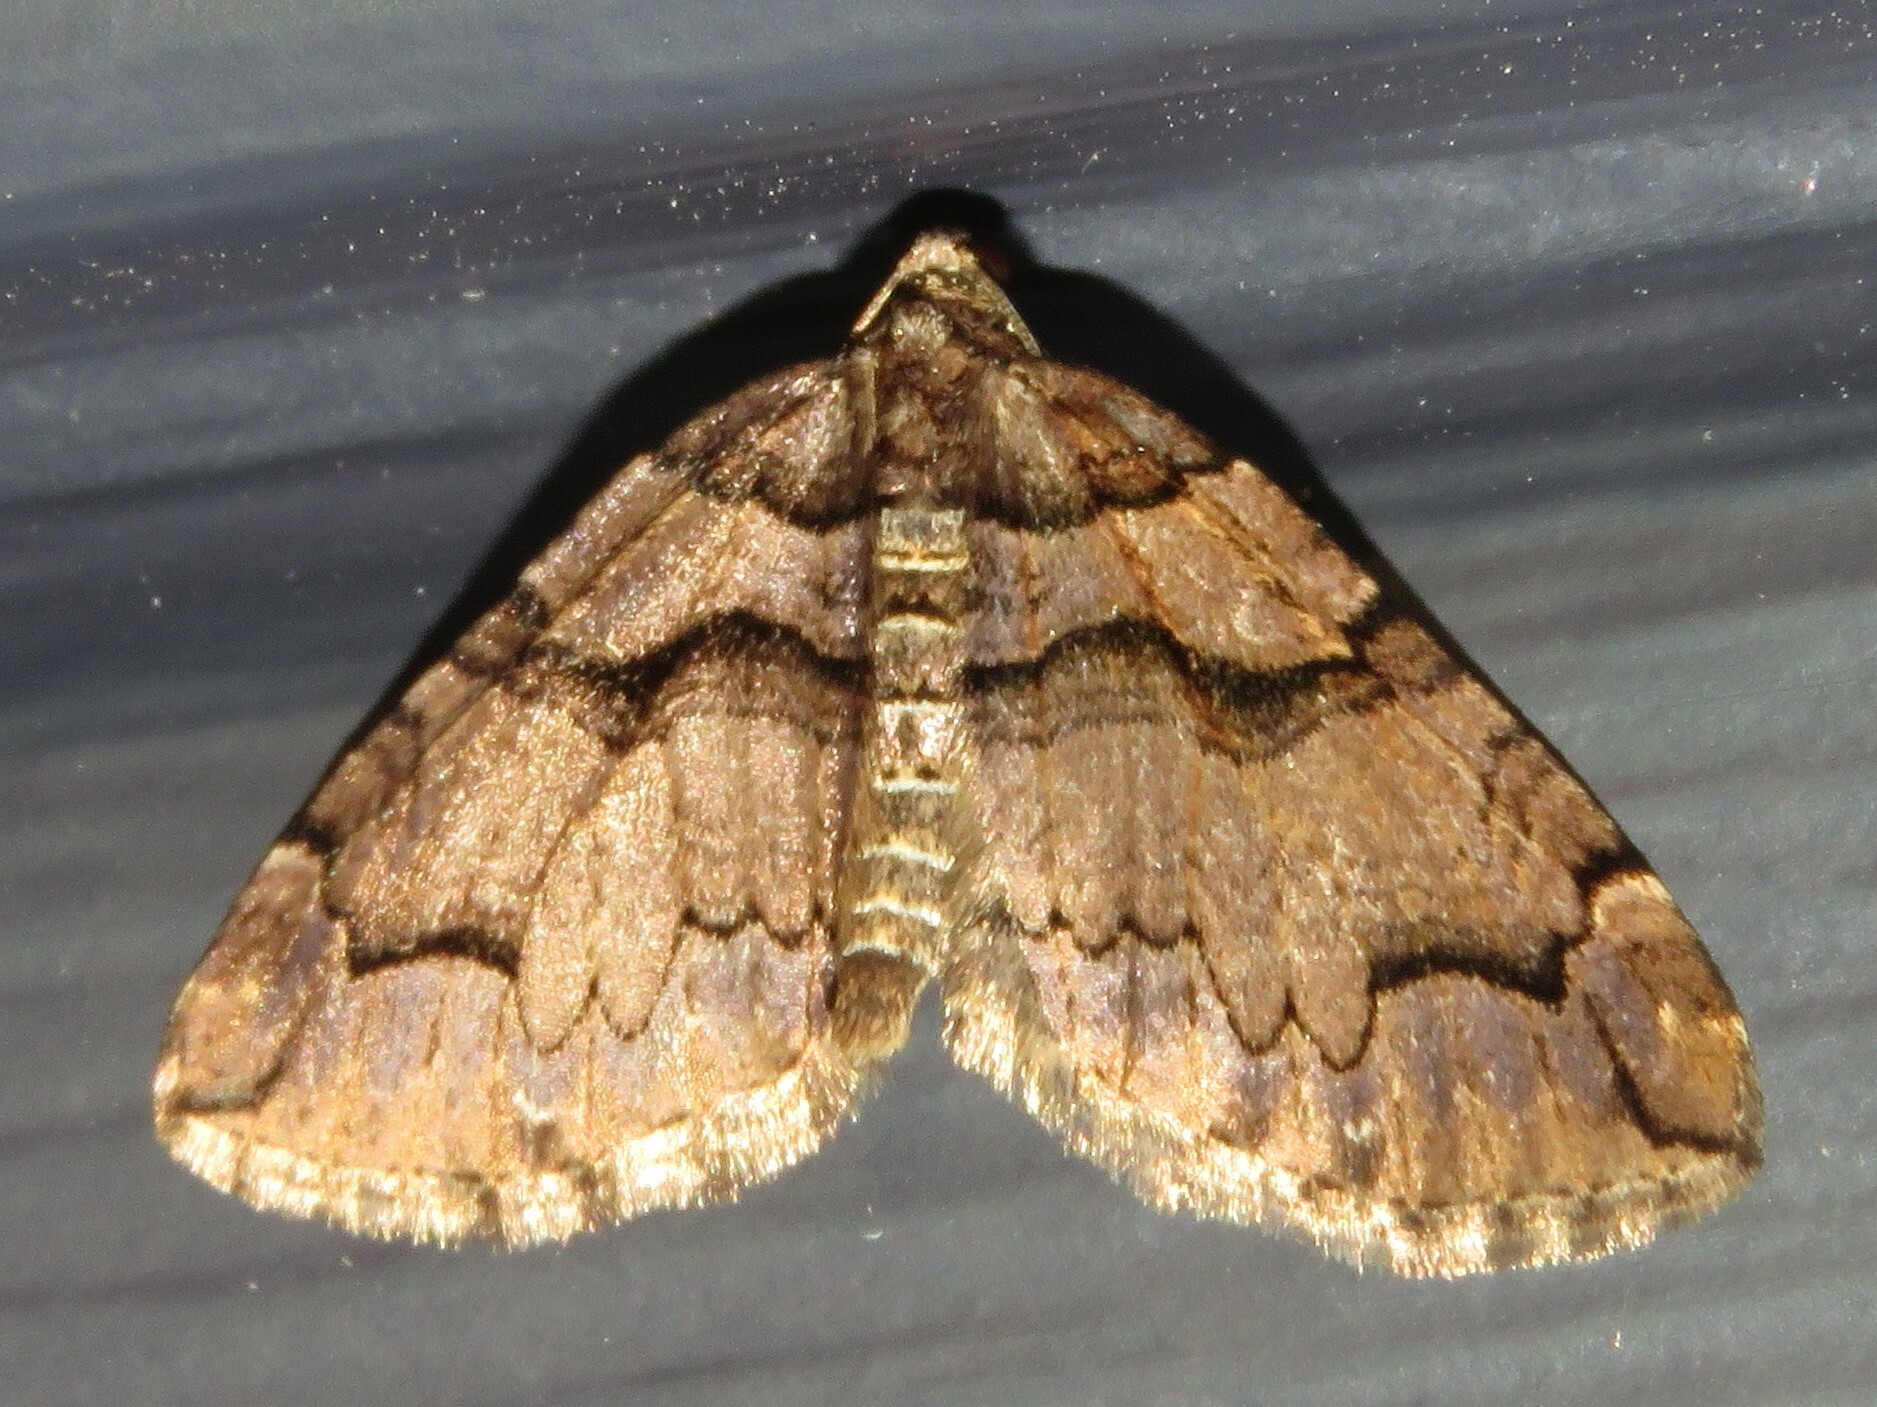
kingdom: Animalia
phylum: Arthropoda
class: Insecta
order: Lepidoptera
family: Geometridae
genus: Anticlea
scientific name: Anticlea vasiliata
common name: Variable carpet
